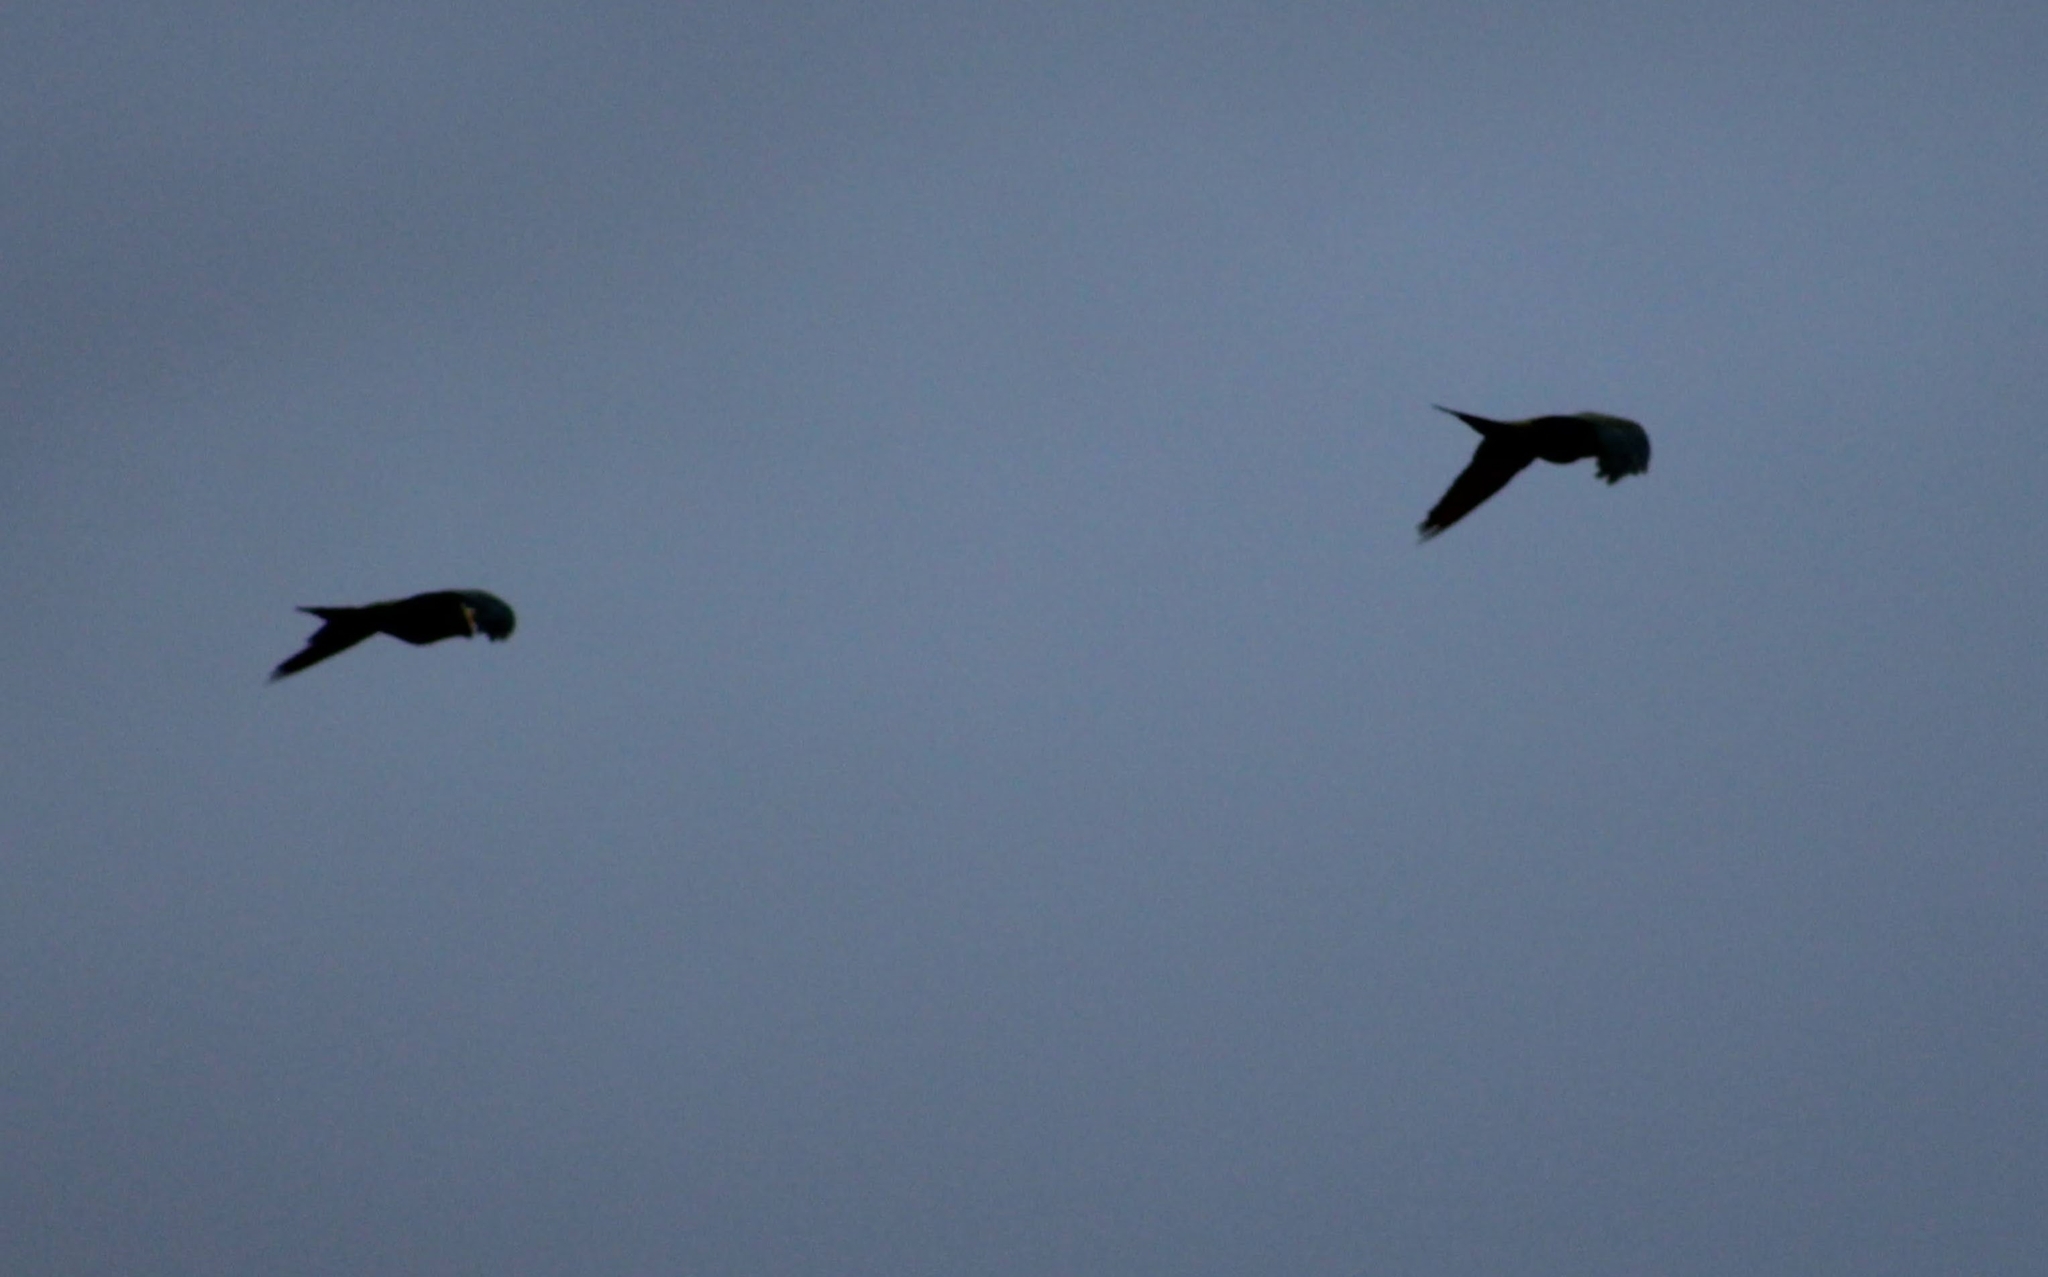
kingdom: Animalia
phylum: Chordata
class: Aves
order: Psittaciformes
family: Psittacidae
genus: Orthopsittaca
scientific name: Orthopsittaca manilata
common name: Red-bellied macaw
